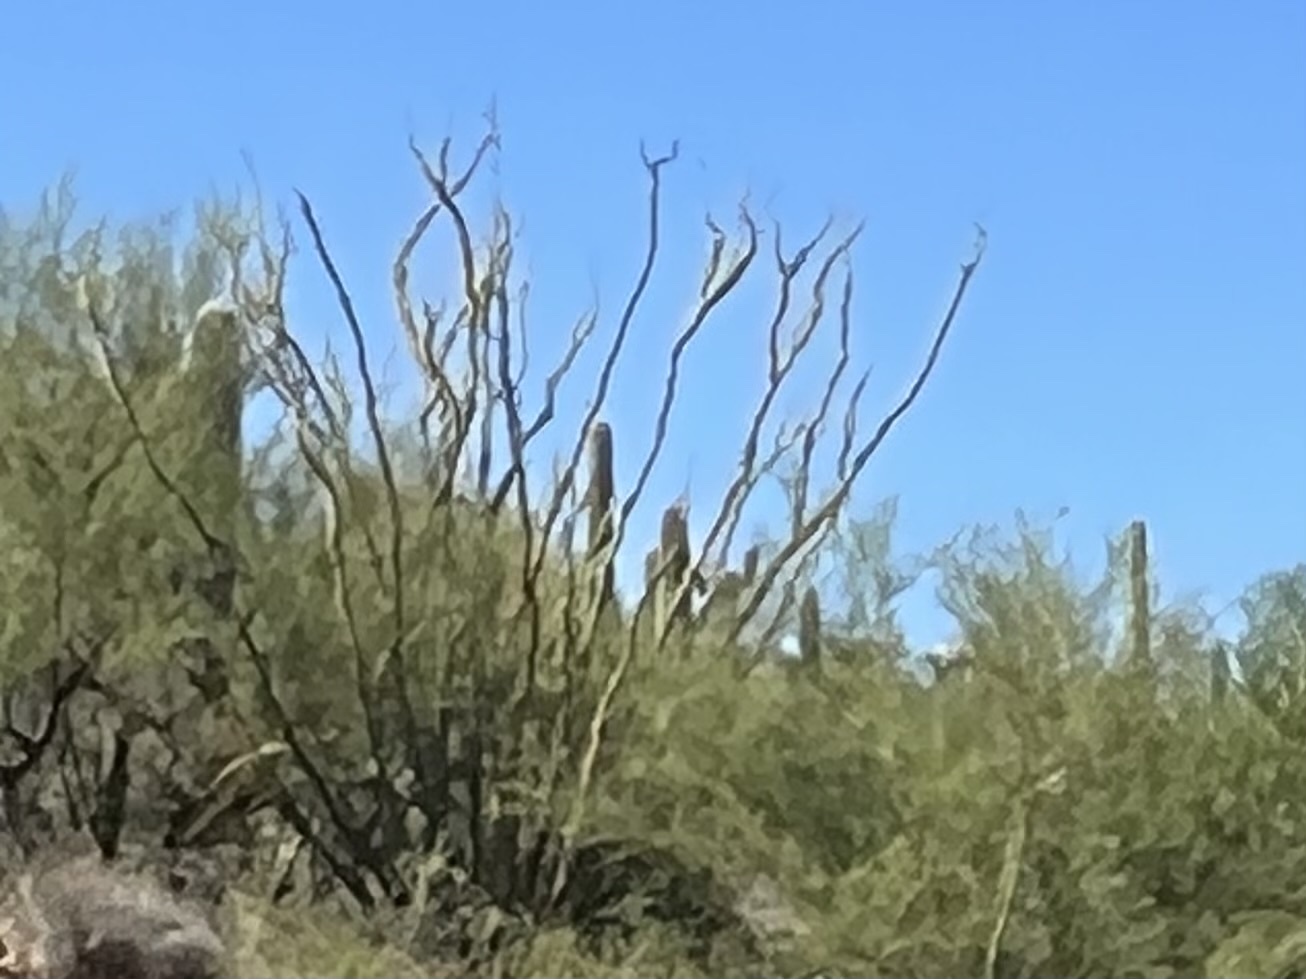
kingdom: Plantae
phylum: Tracheophyta
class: Magnoliopsida
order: Ericales
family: Fouquieriaceae
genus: Fouquieria
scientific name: Fouquieria splendens
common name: Vine-cactus
